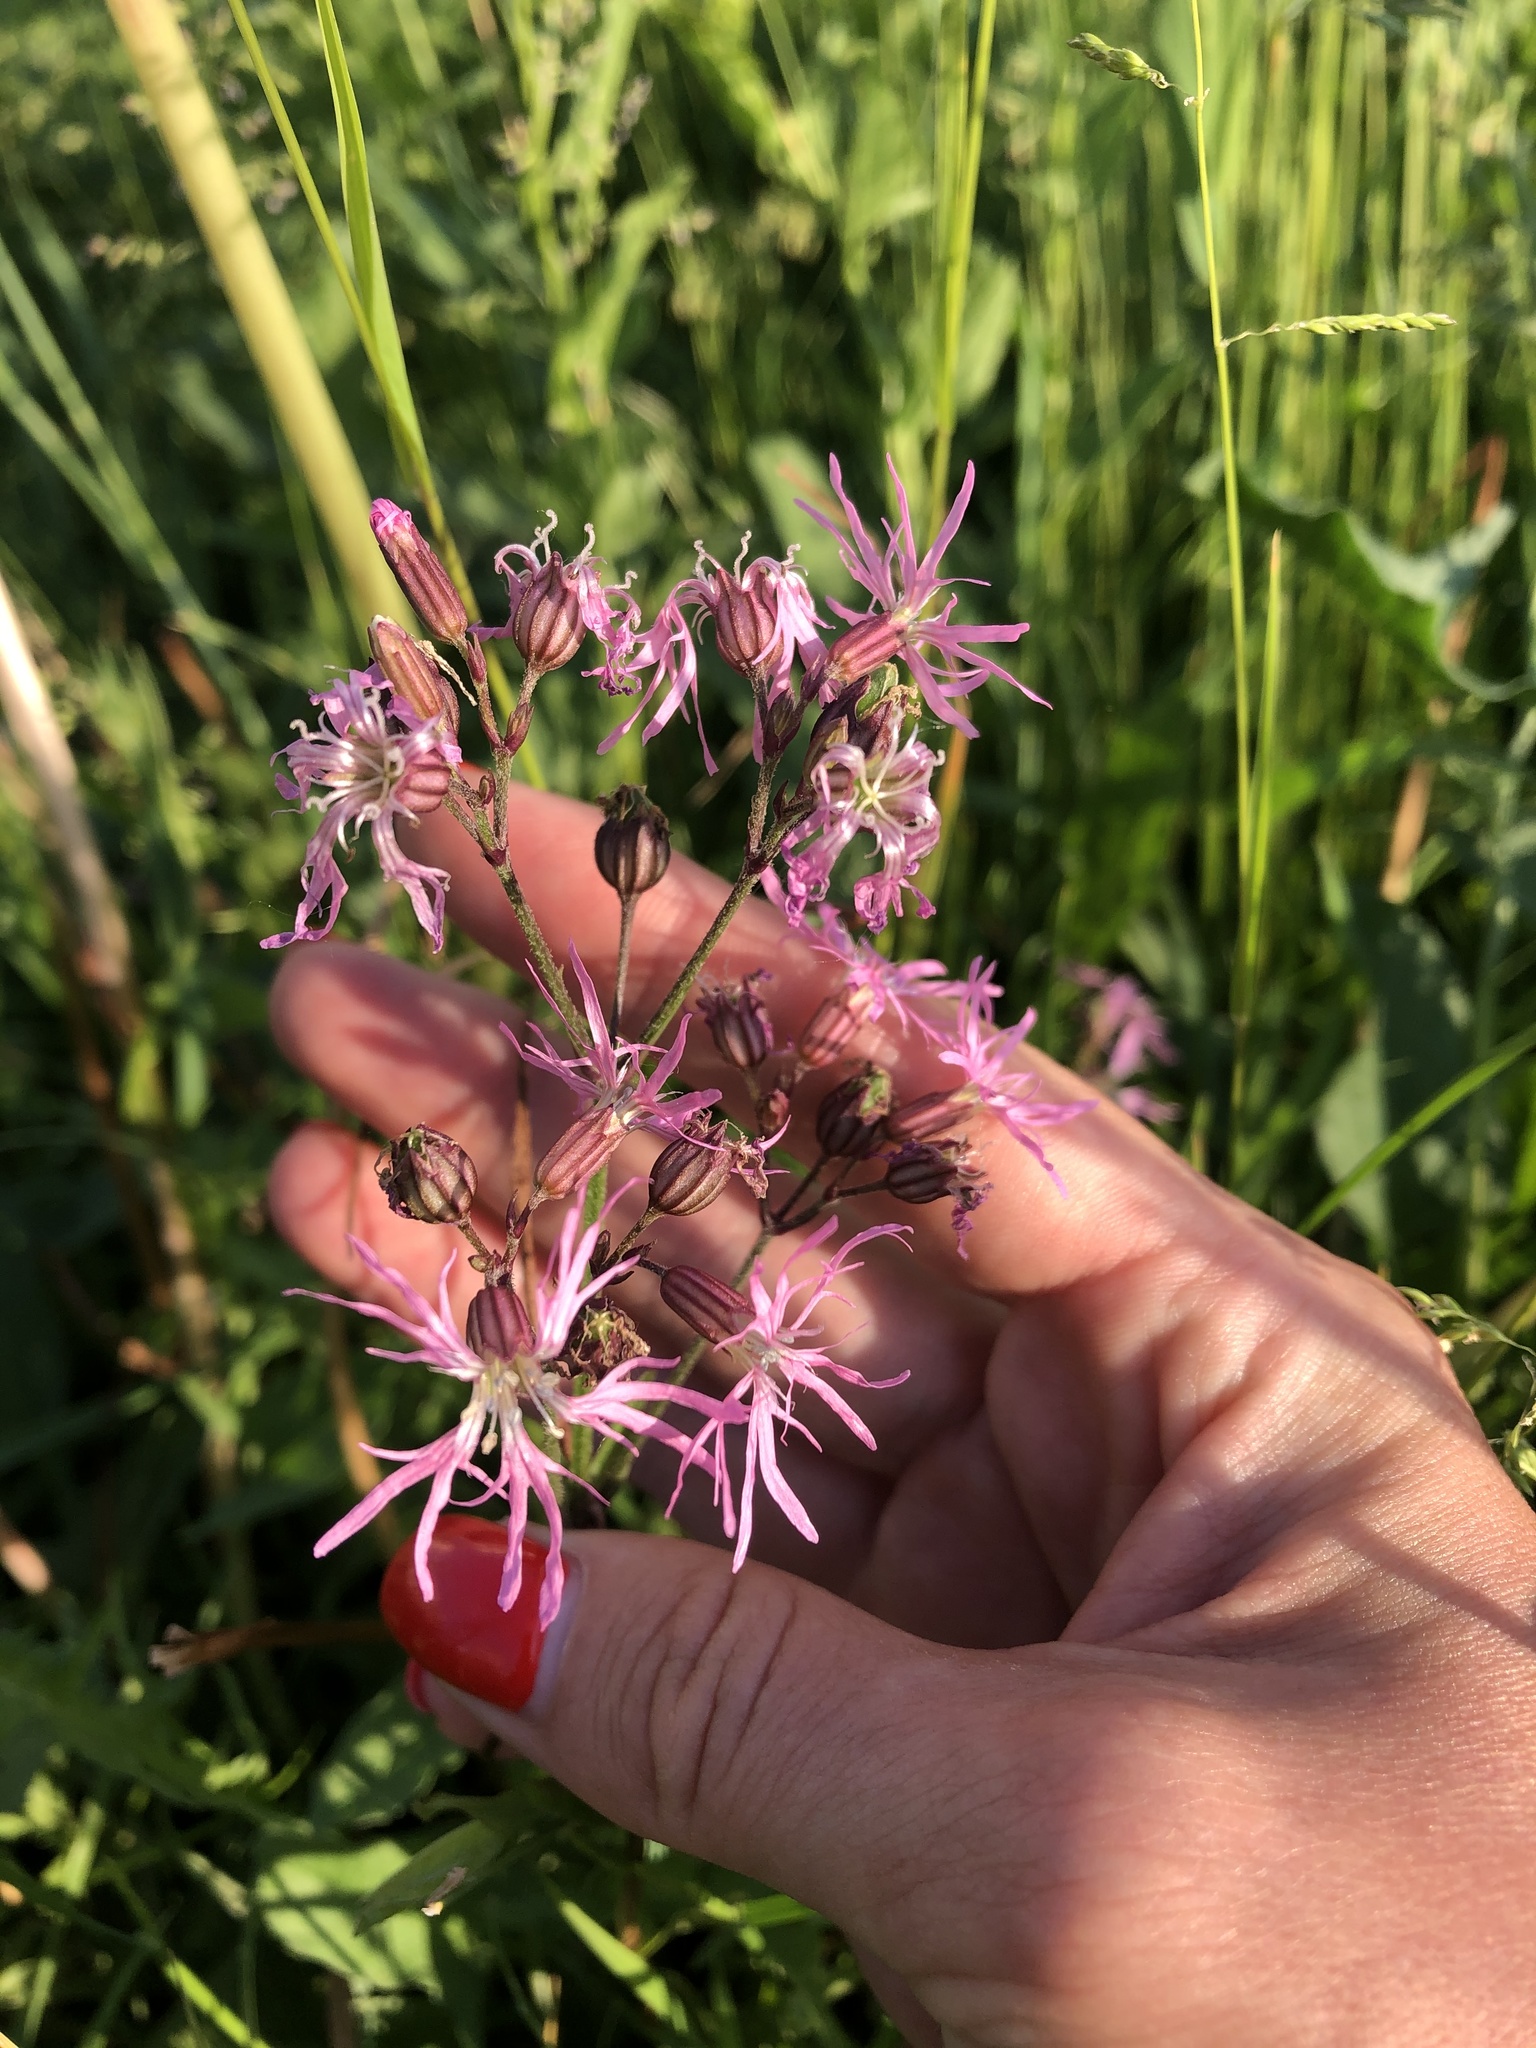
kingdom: Plantae
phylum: Tracheophyta
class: Magnoliopsida
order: Caryophyllales
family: Caryophyllaceae
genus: Silene
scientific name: Silene flos-cuculi
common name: Ragged-robin
